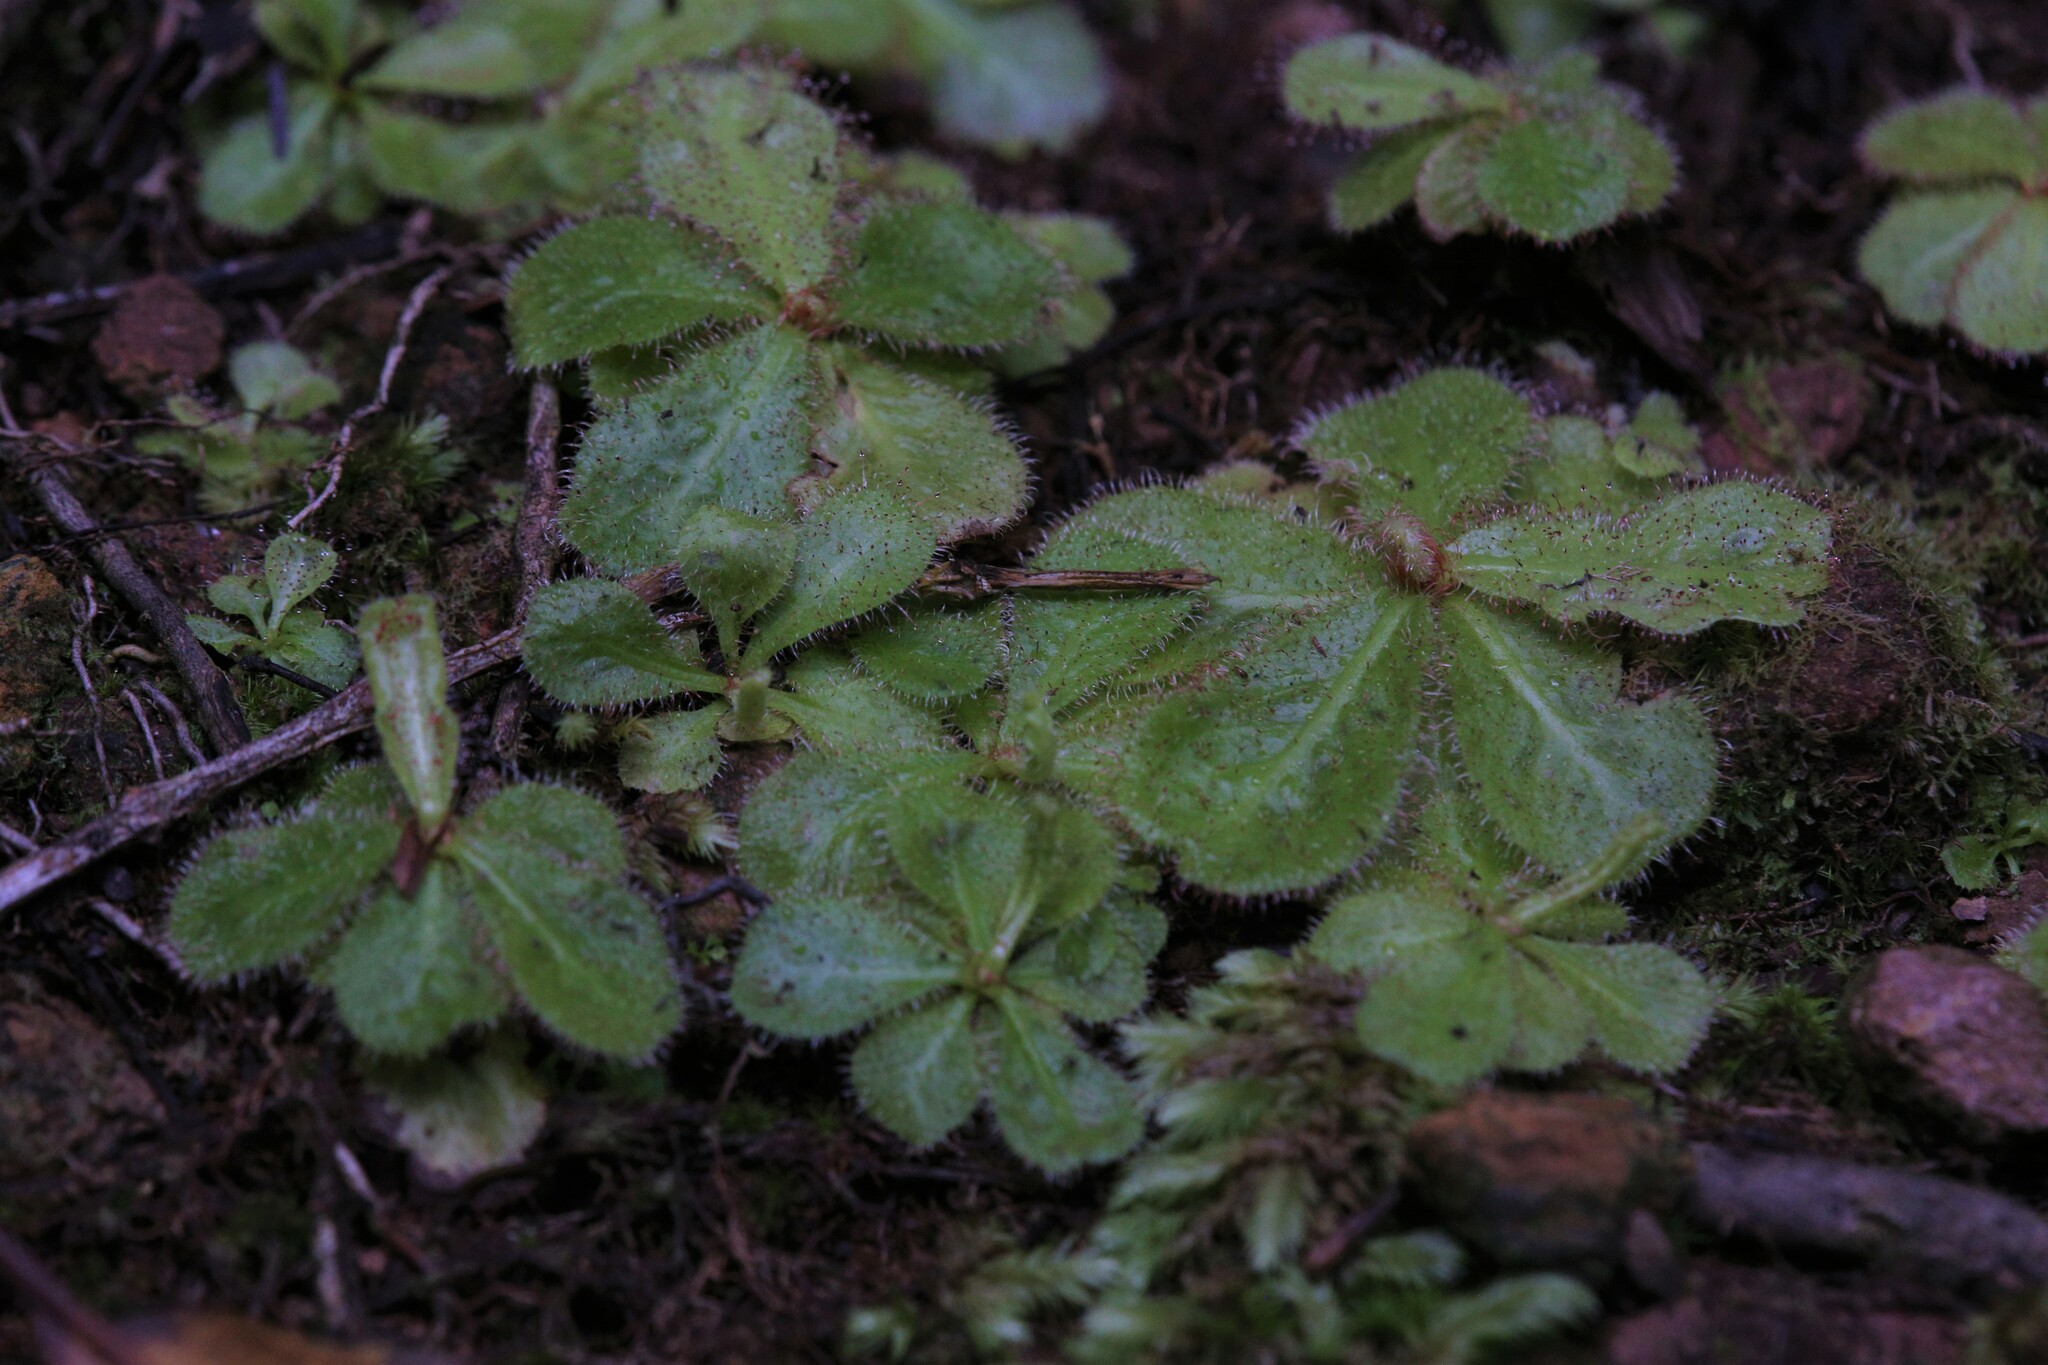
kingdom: Plantae
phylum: Tracheophyta
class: Magnoliopsida
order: Caryophyllales
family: Droseraceae
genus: Drosera
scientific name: Drosera schizandra
